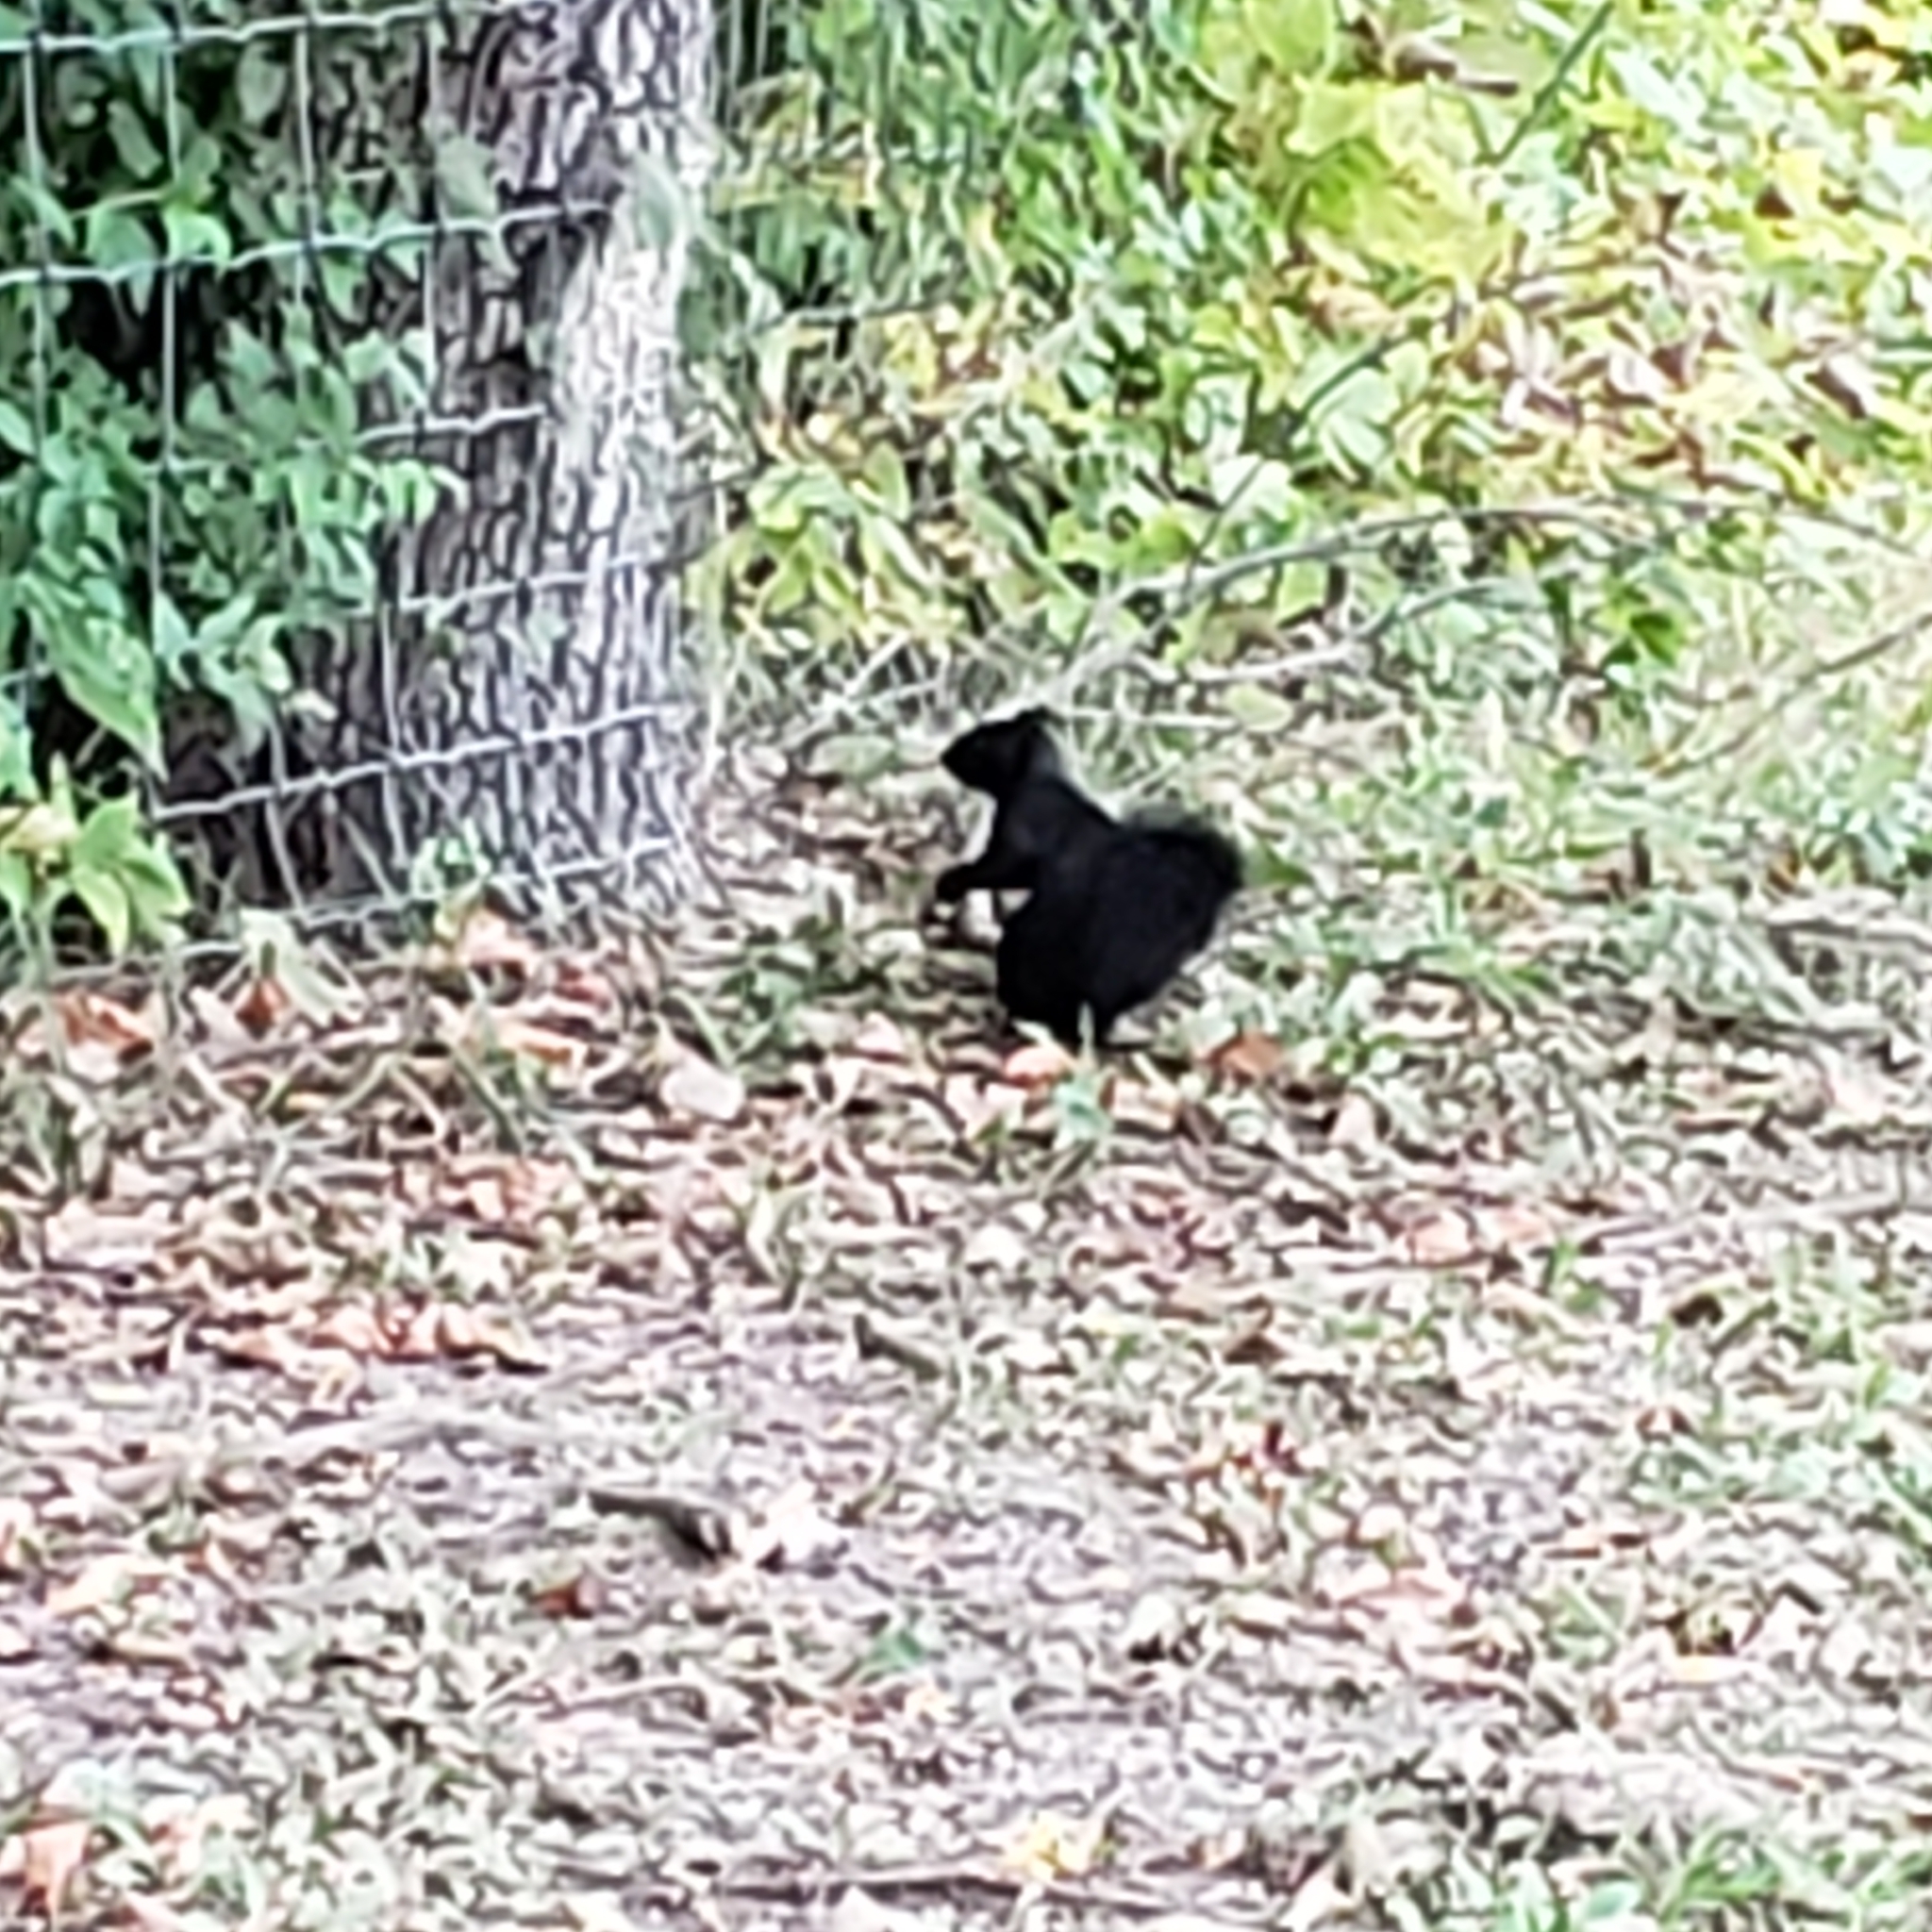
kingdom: Animalia
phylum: Chordata
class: Mammalia
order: Rodentia
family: Sciuridae
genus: Sciurus
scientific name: Sciurus carolinensis
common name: Eastern gray squirrel
